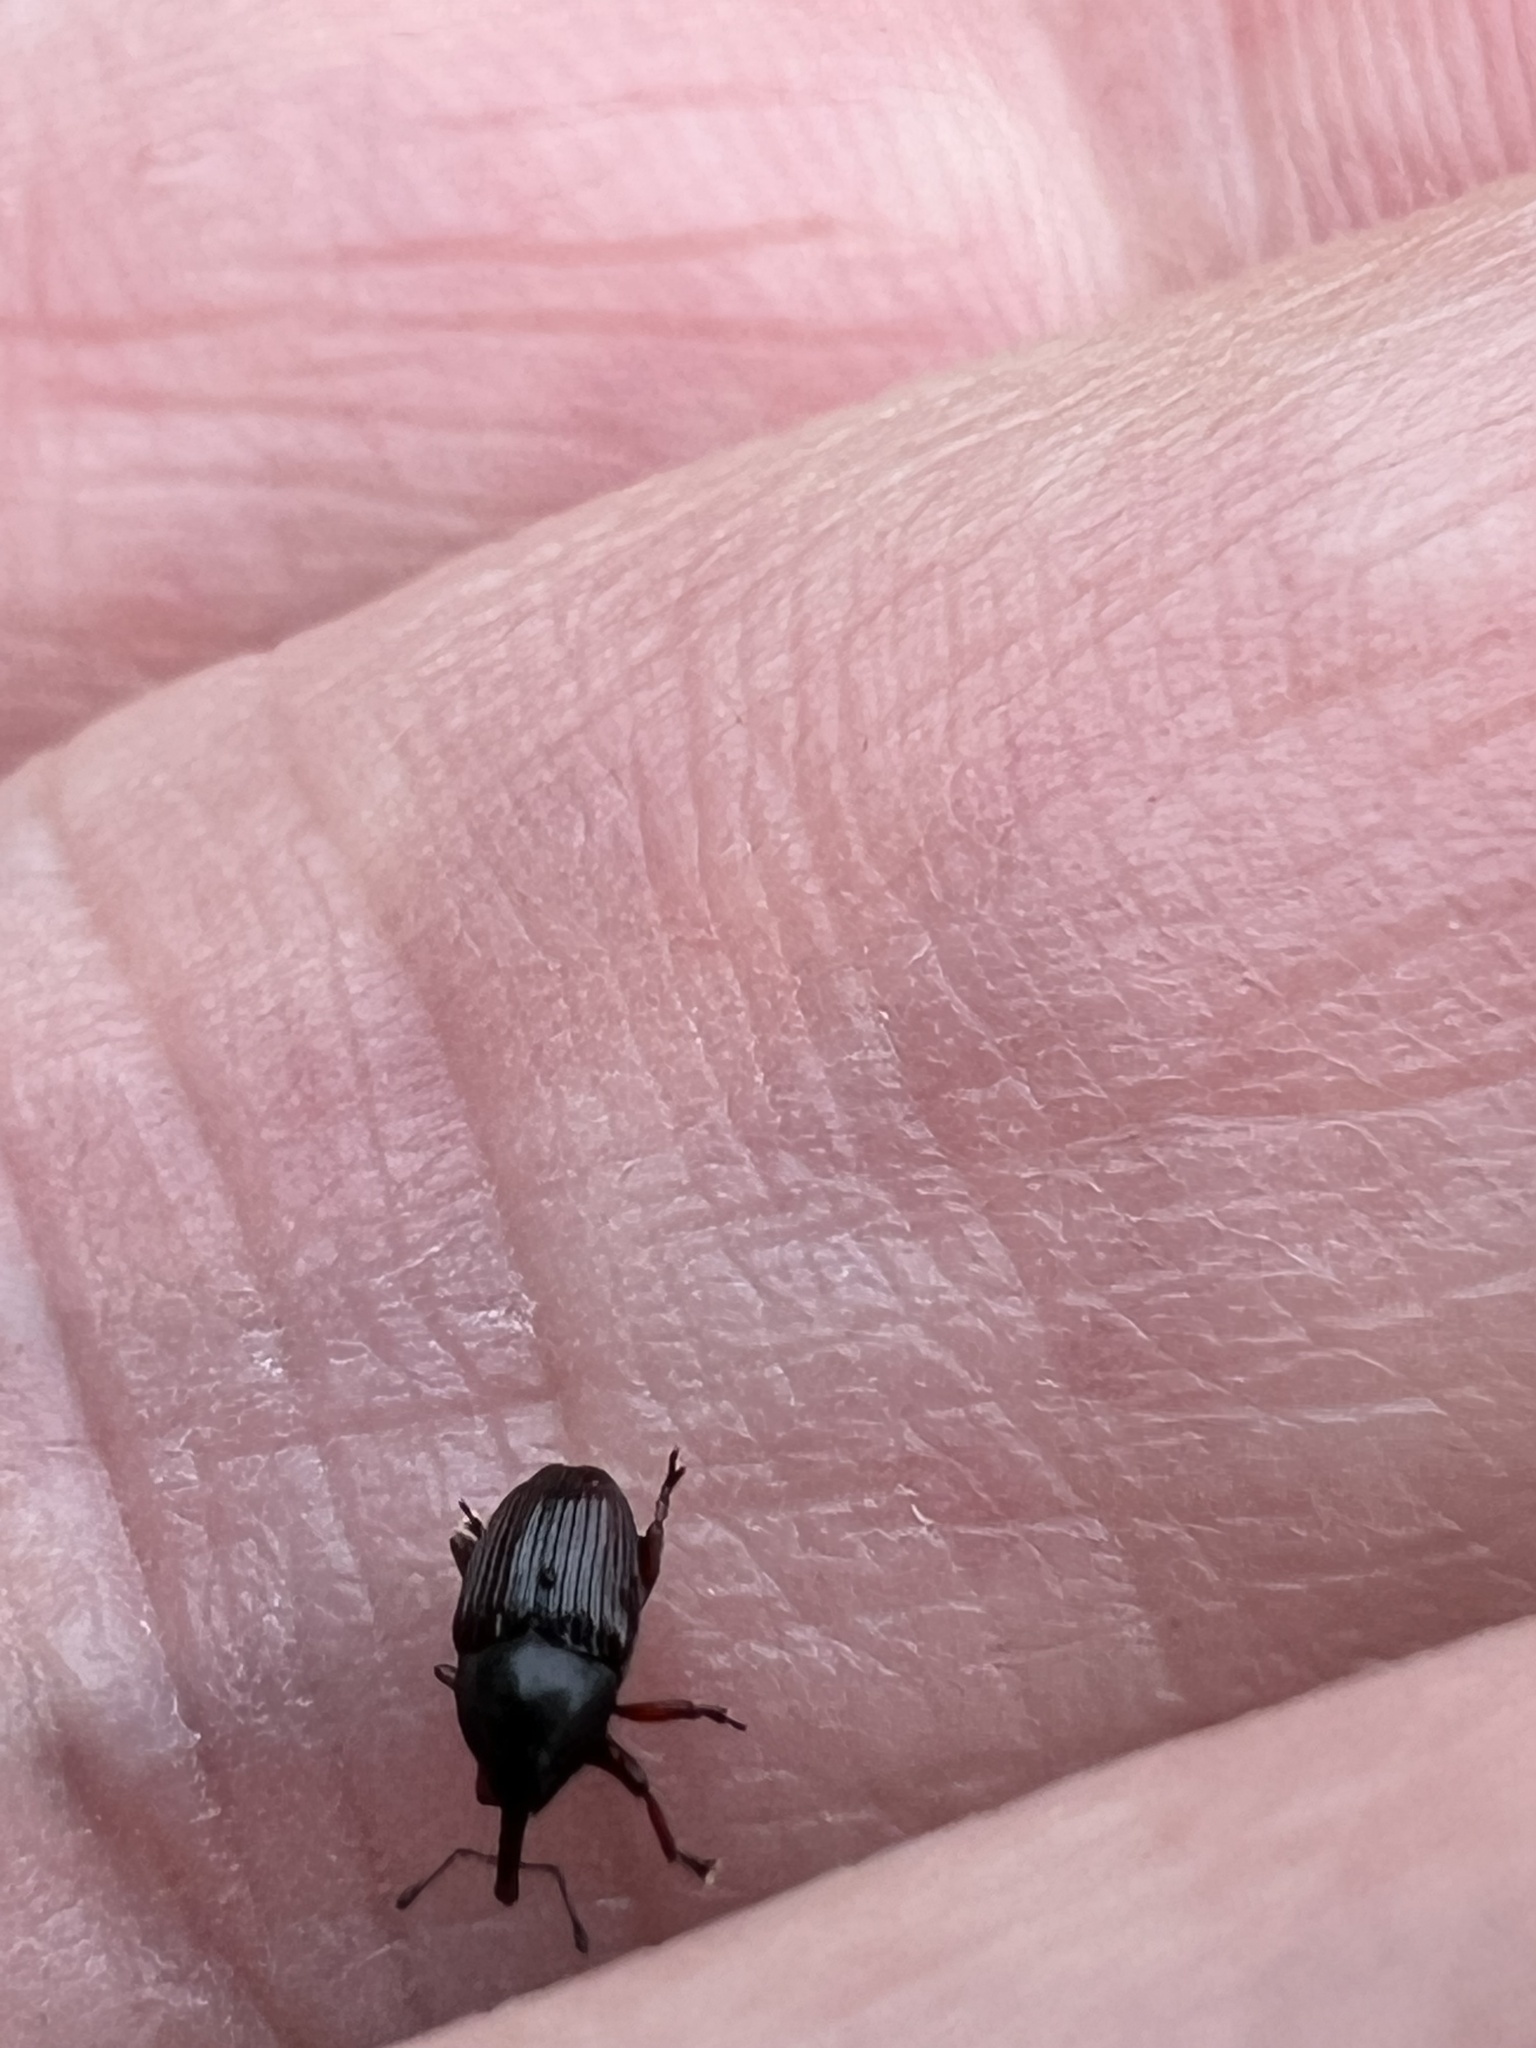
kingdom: Animalia
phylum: Arthropoda
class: Insecta
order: Coleoptera
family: Curculionidae
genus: Odontocorynus
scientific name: Odontocorynus umbellae
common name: Daisy flower weevil
